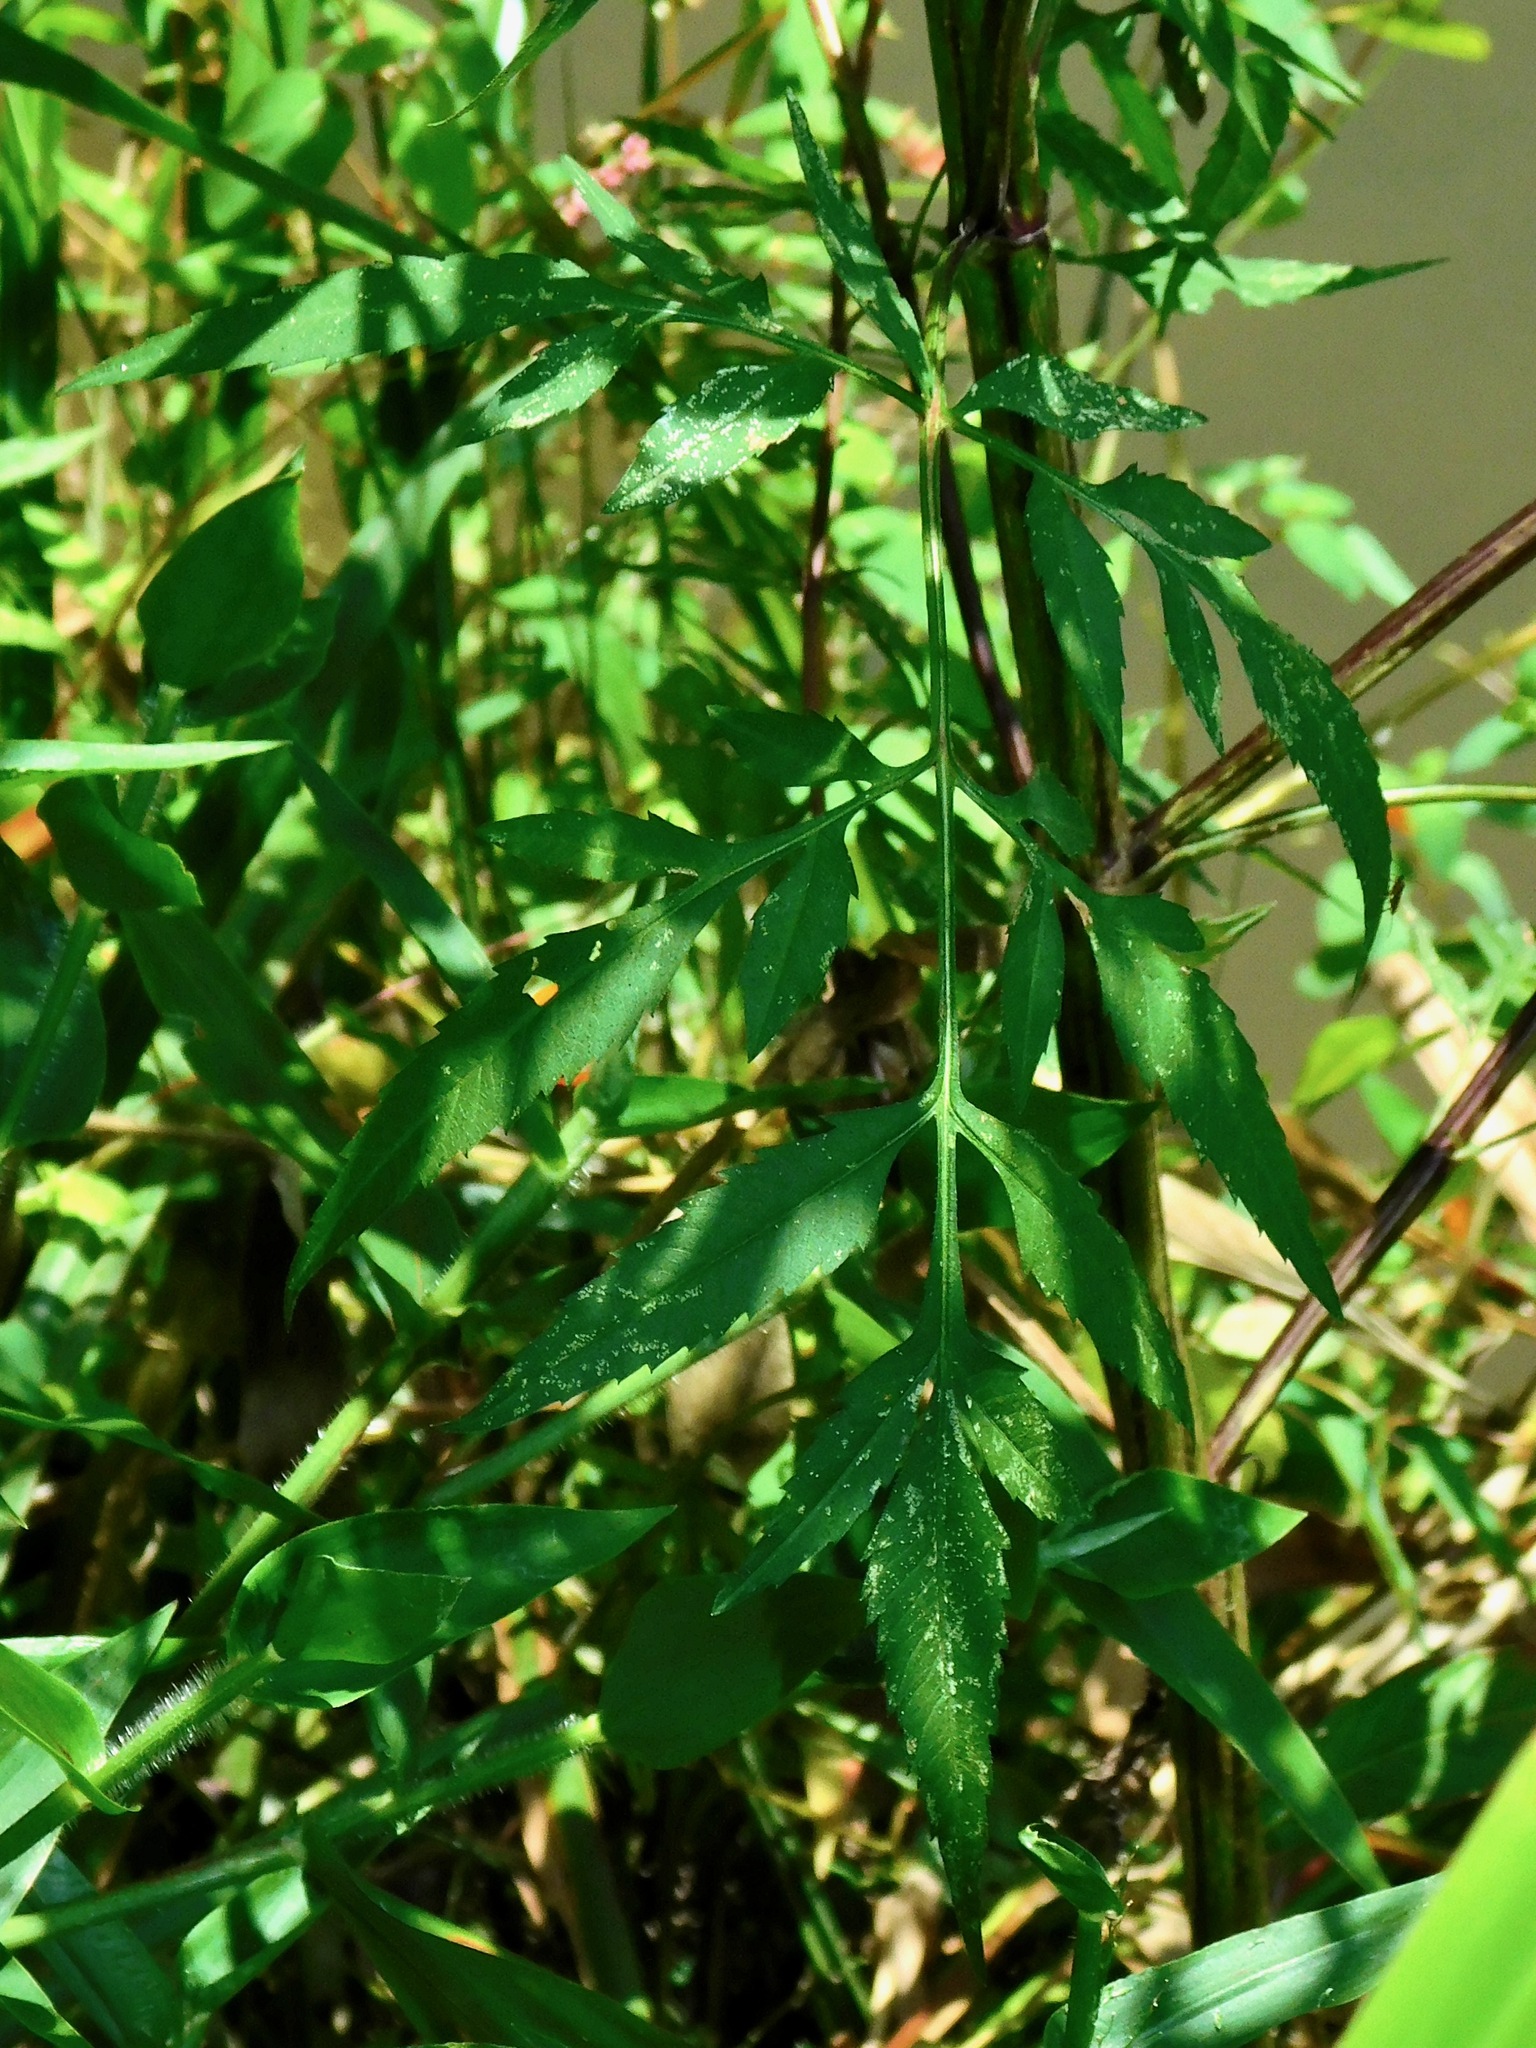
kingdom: Plantae
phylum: Tracheophyta
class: Magnoliopsida
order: Asterales
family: Asteraceae
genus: Bidens
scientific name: Bidens aristosa
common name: Western tickseed
